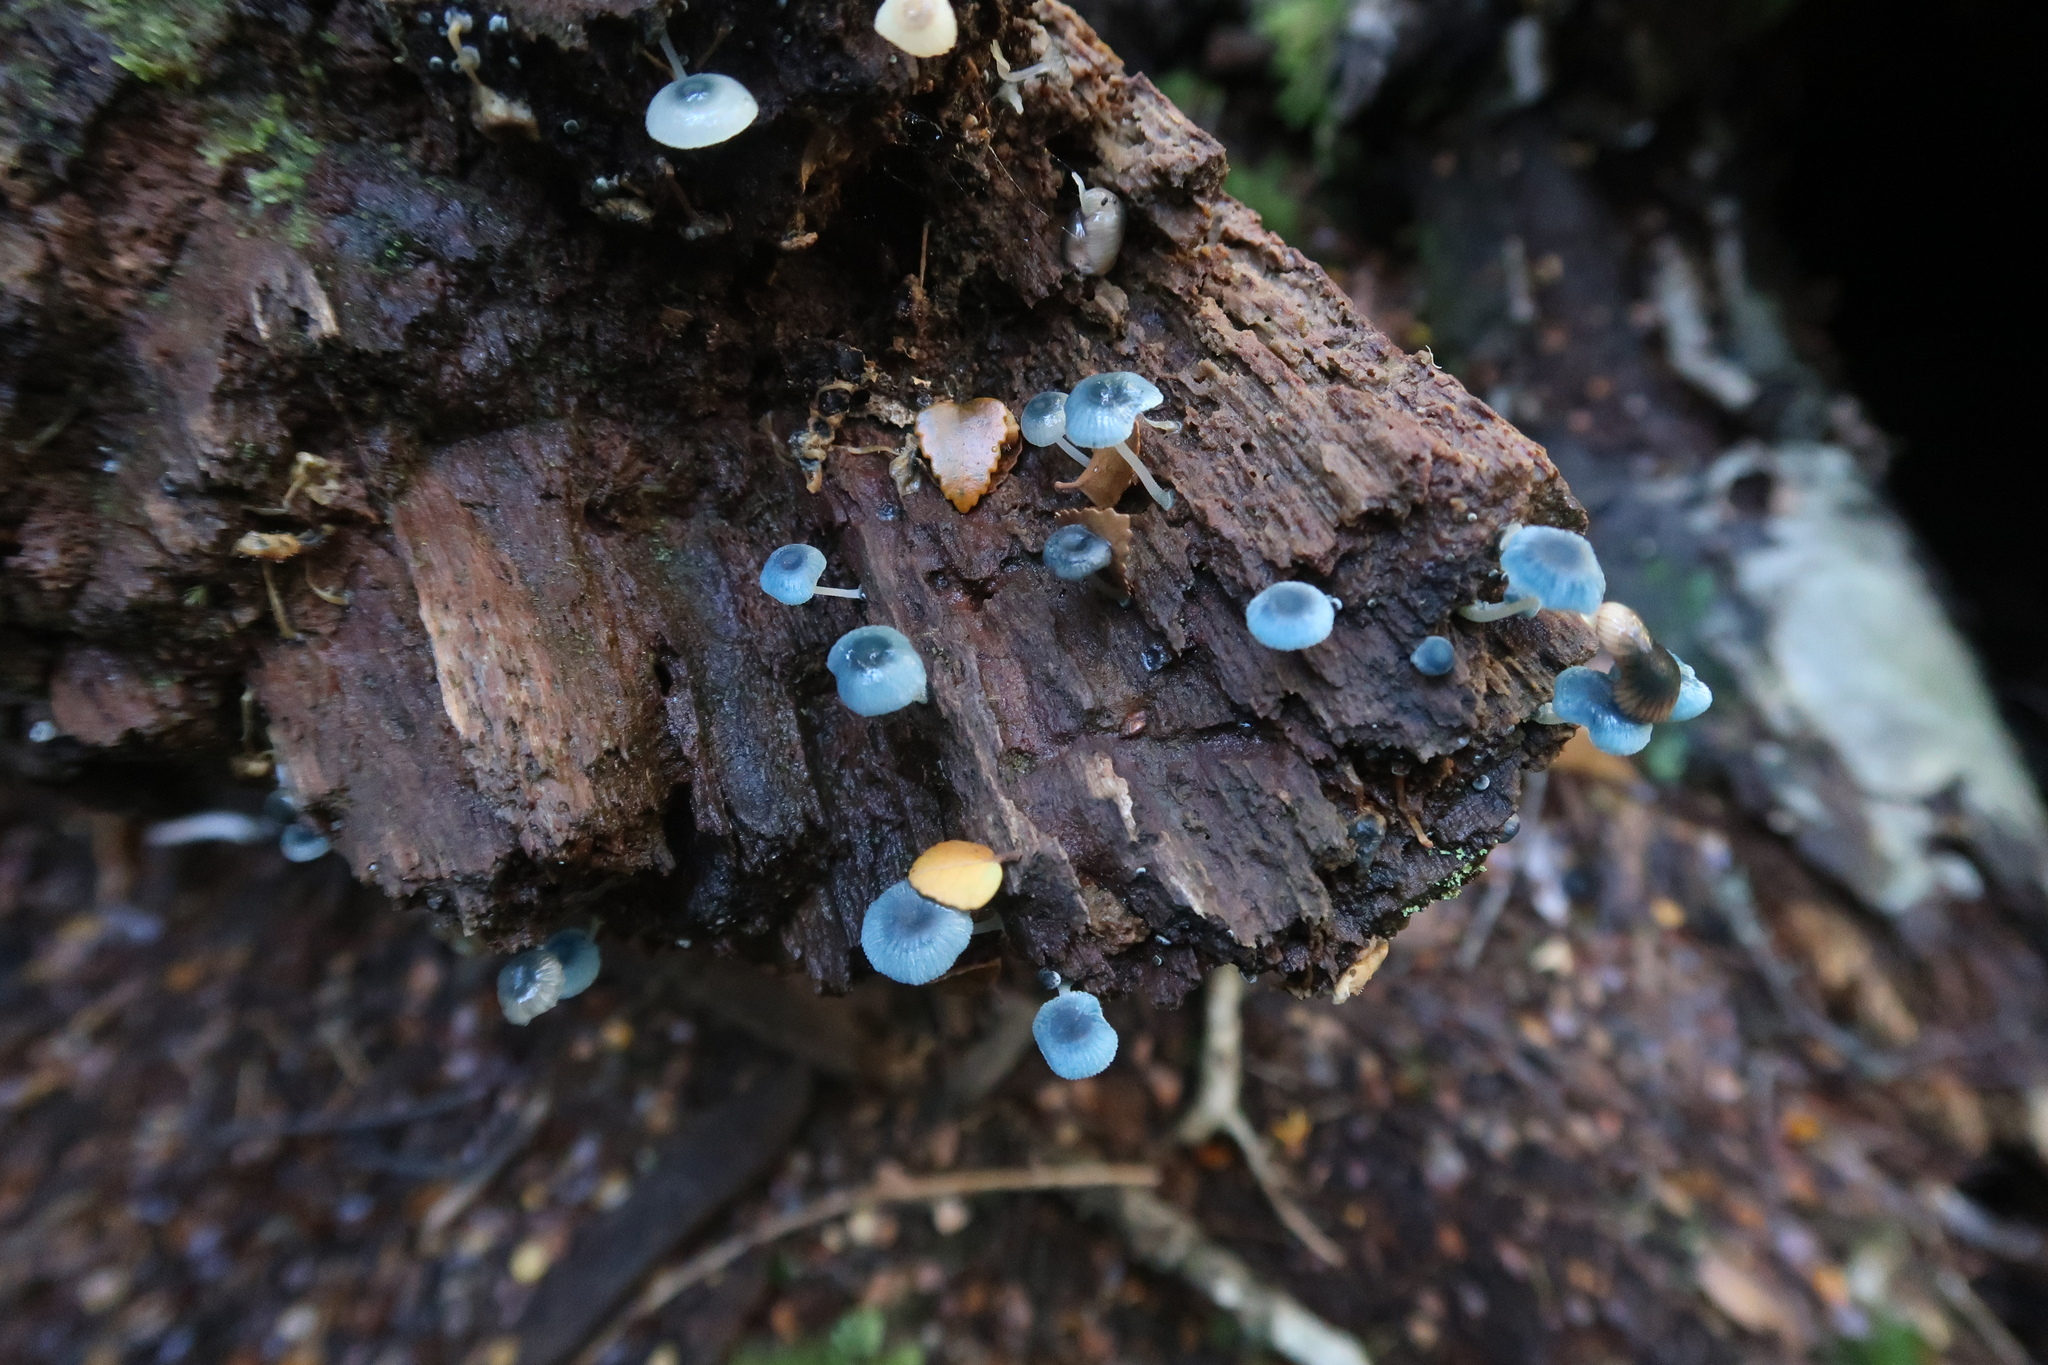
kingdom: Fungi
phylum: Basidiomycota
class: Agaricomycetes
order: Agaricales
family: Mycenaceae
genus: Mycena
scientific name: Mycena interrupta
